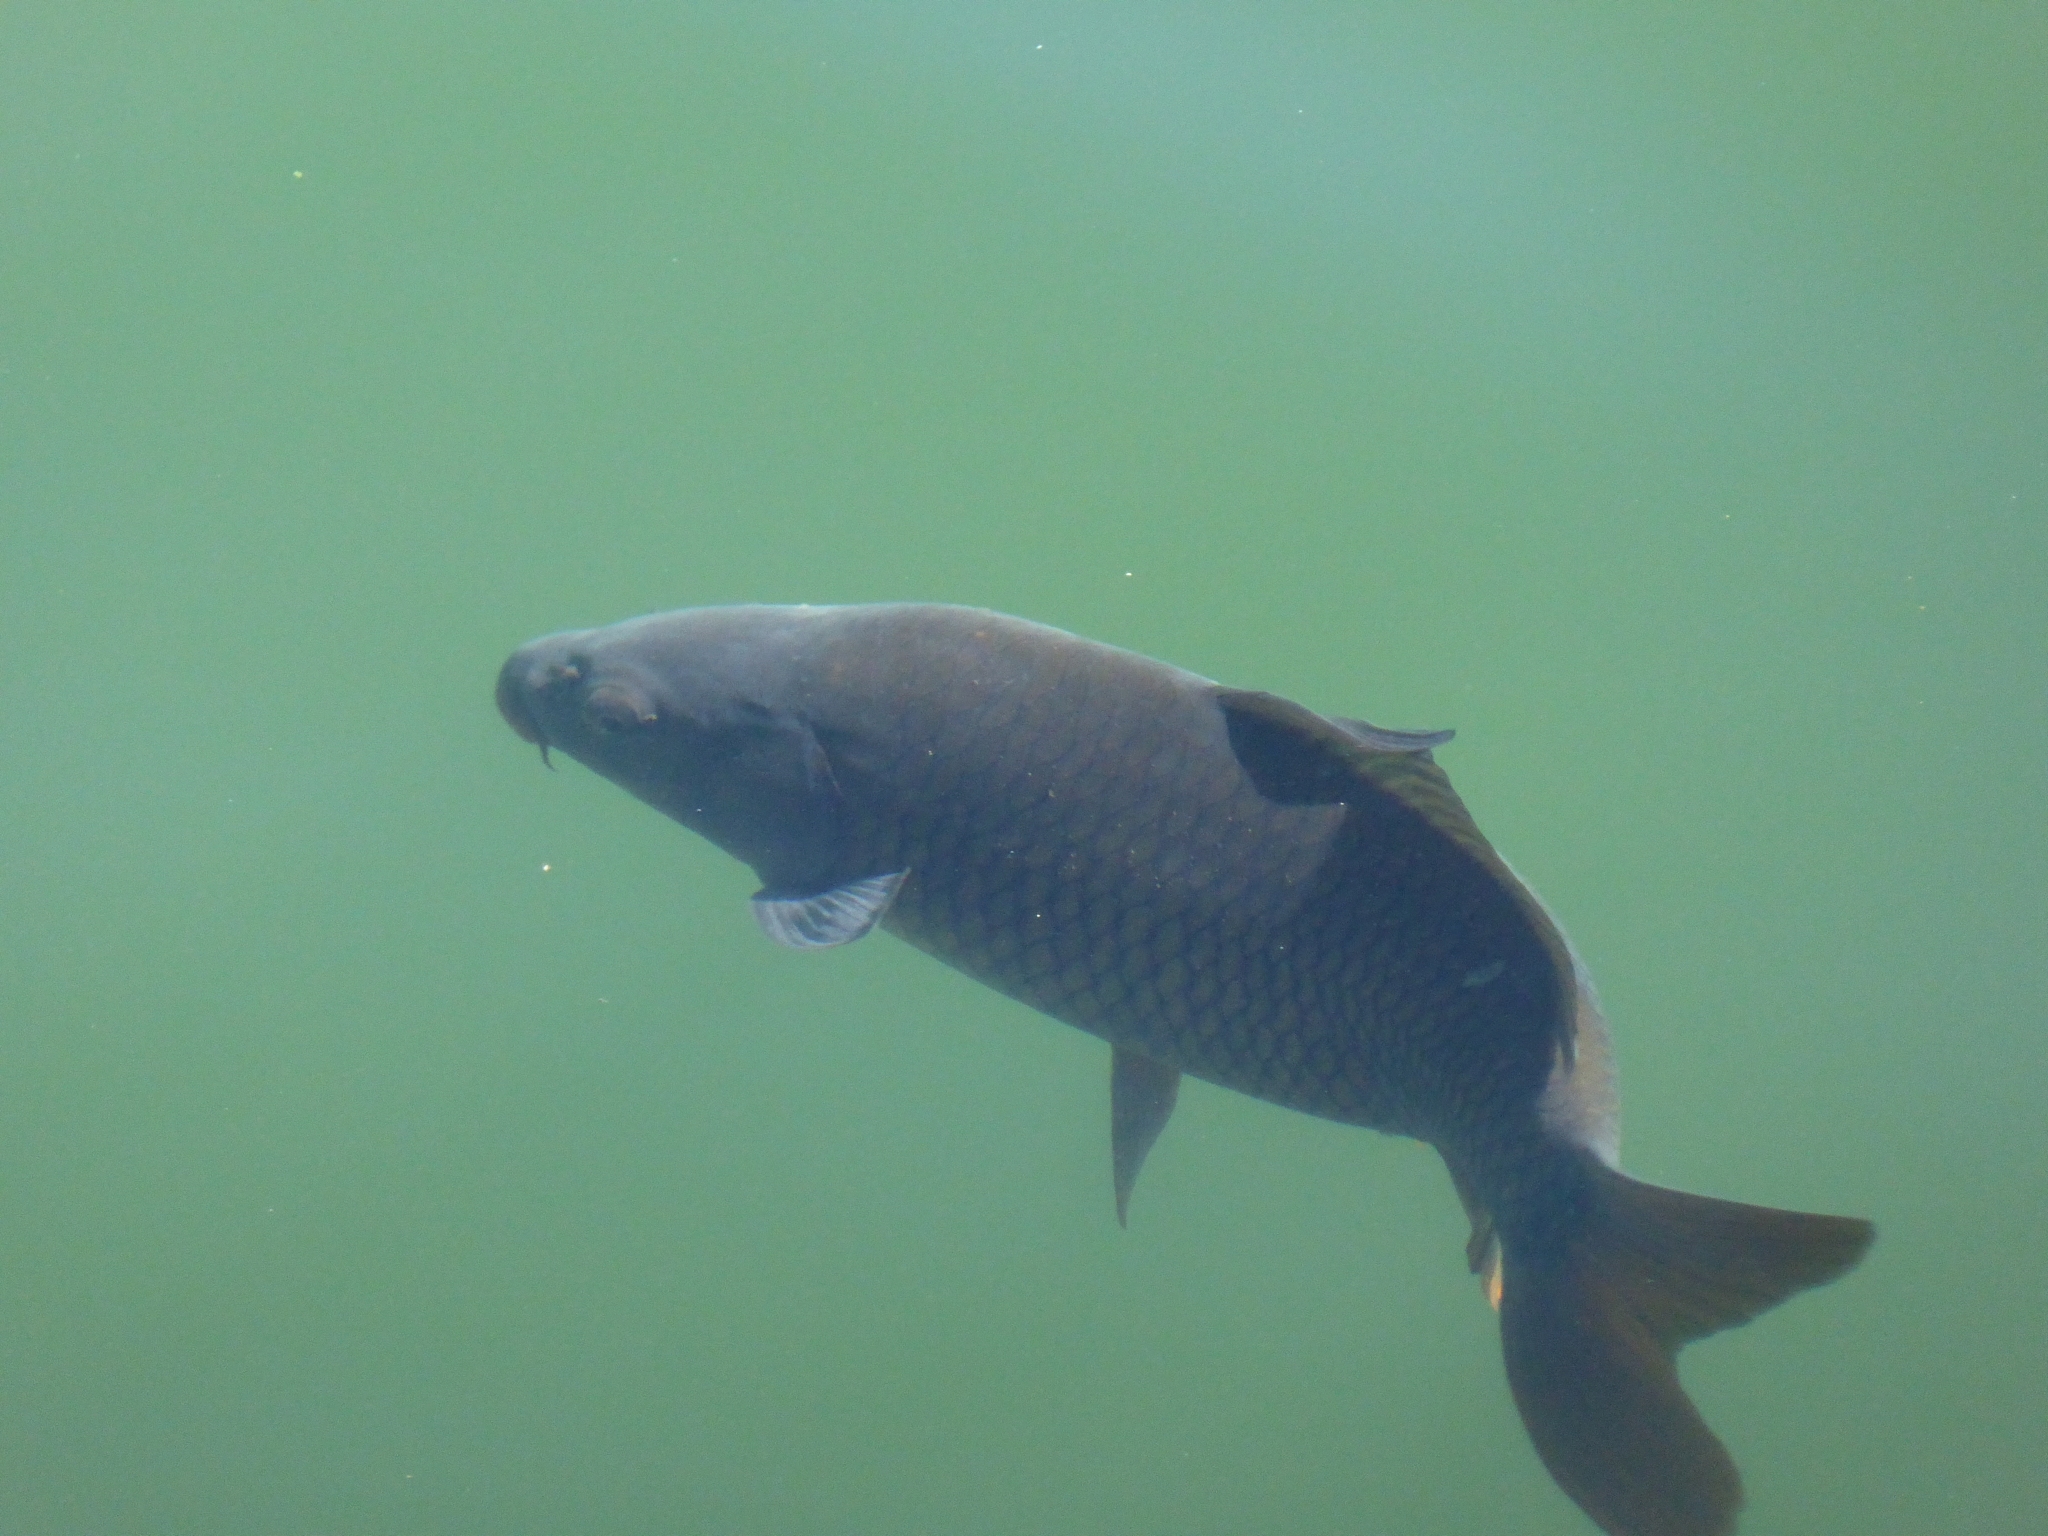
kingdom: Animalia
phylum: Chordata
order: Cypriniformes
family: Cyprinidae
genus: Cyprinus
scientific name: Cyprinus carpio
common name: Common carp
